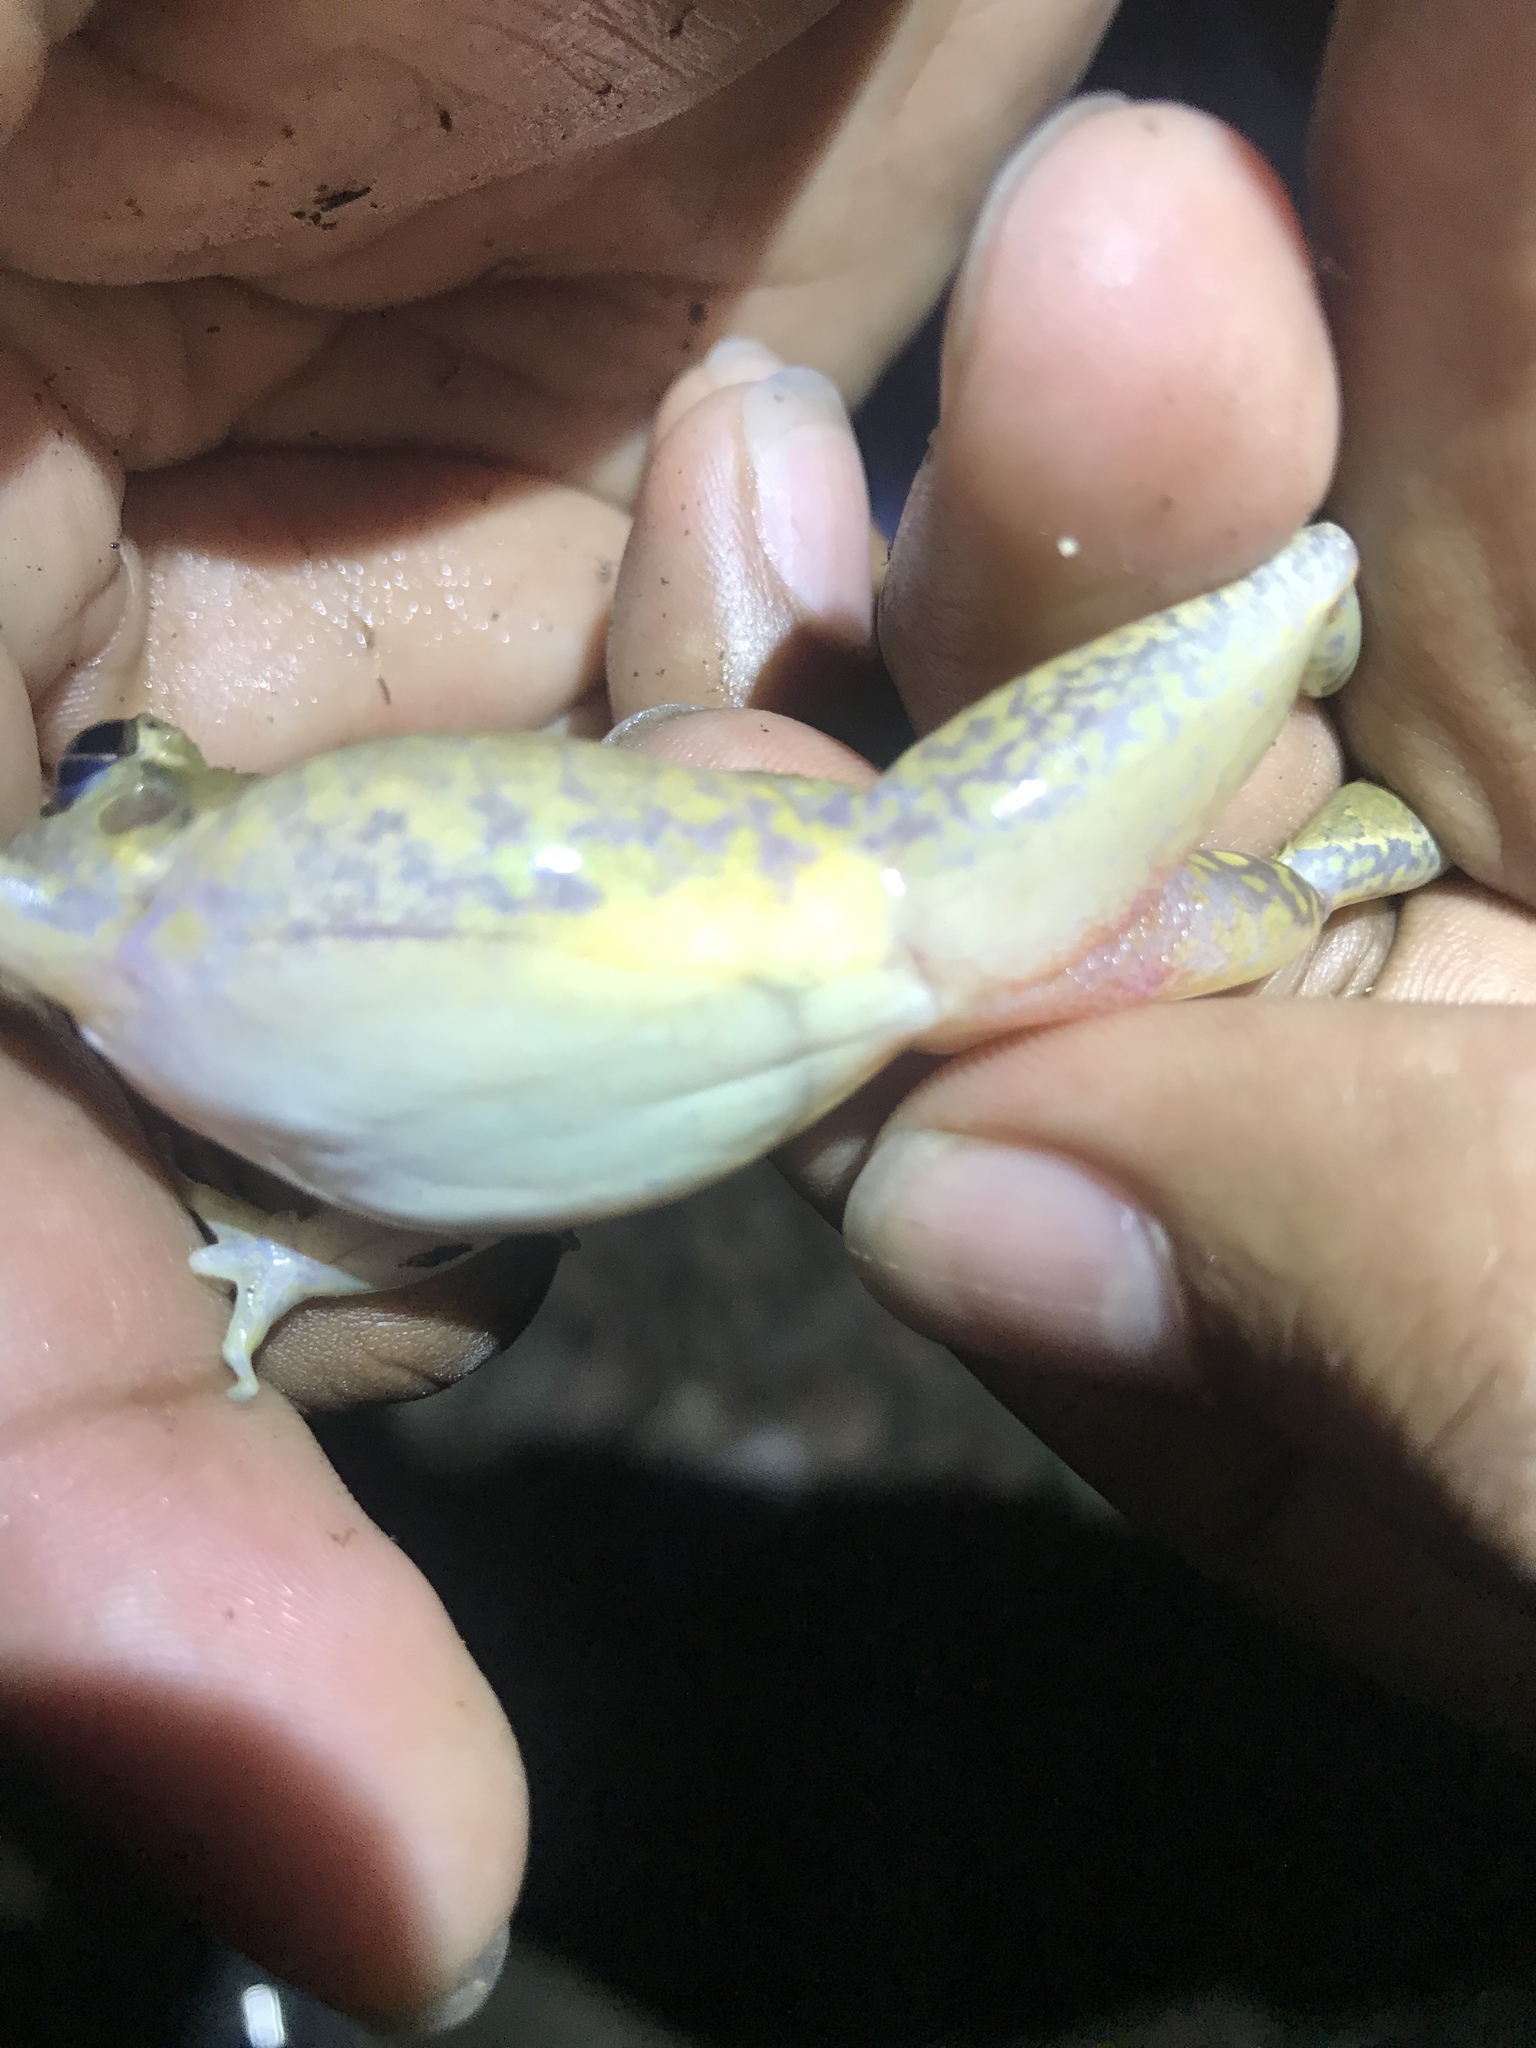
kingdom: Animalia
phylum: Chordata
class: Amphibia
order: Anura
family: Craugastoridae
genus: Craugastor
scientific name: Craugastor fitzingeri
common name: Fitzinger's robber frog
